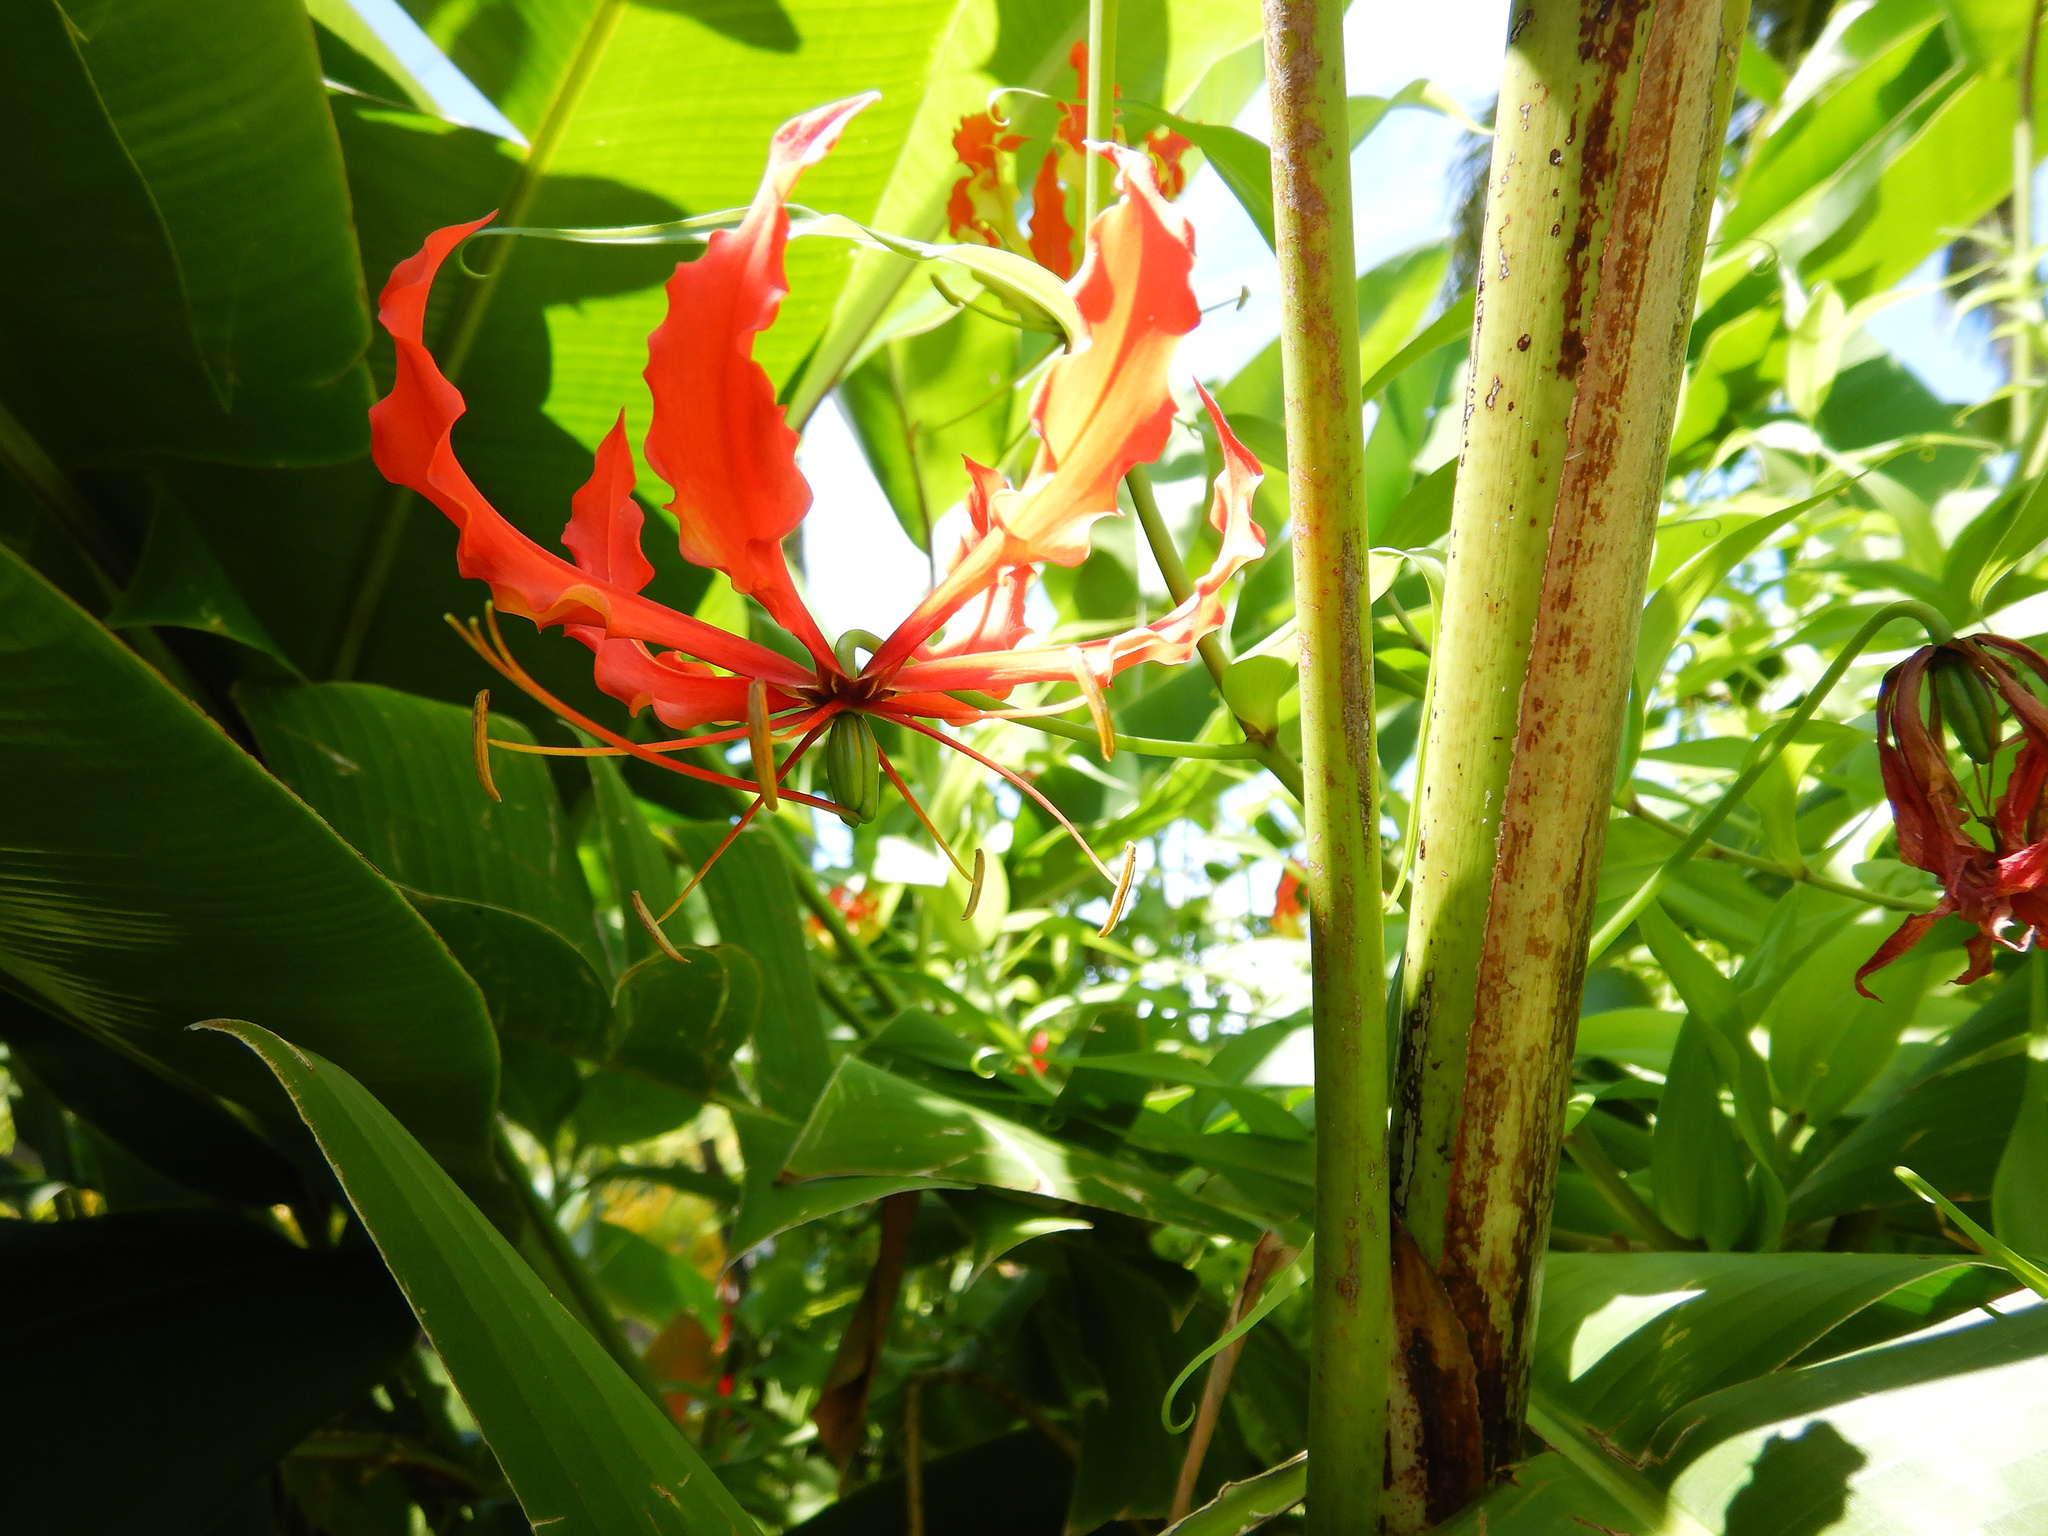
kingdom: Plantae
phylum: Tracheophyta
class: Liliopsida
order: Liliales
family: Colchicaceae
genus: Gloriosa
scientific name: Gloriosa superba
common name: Flame lily
